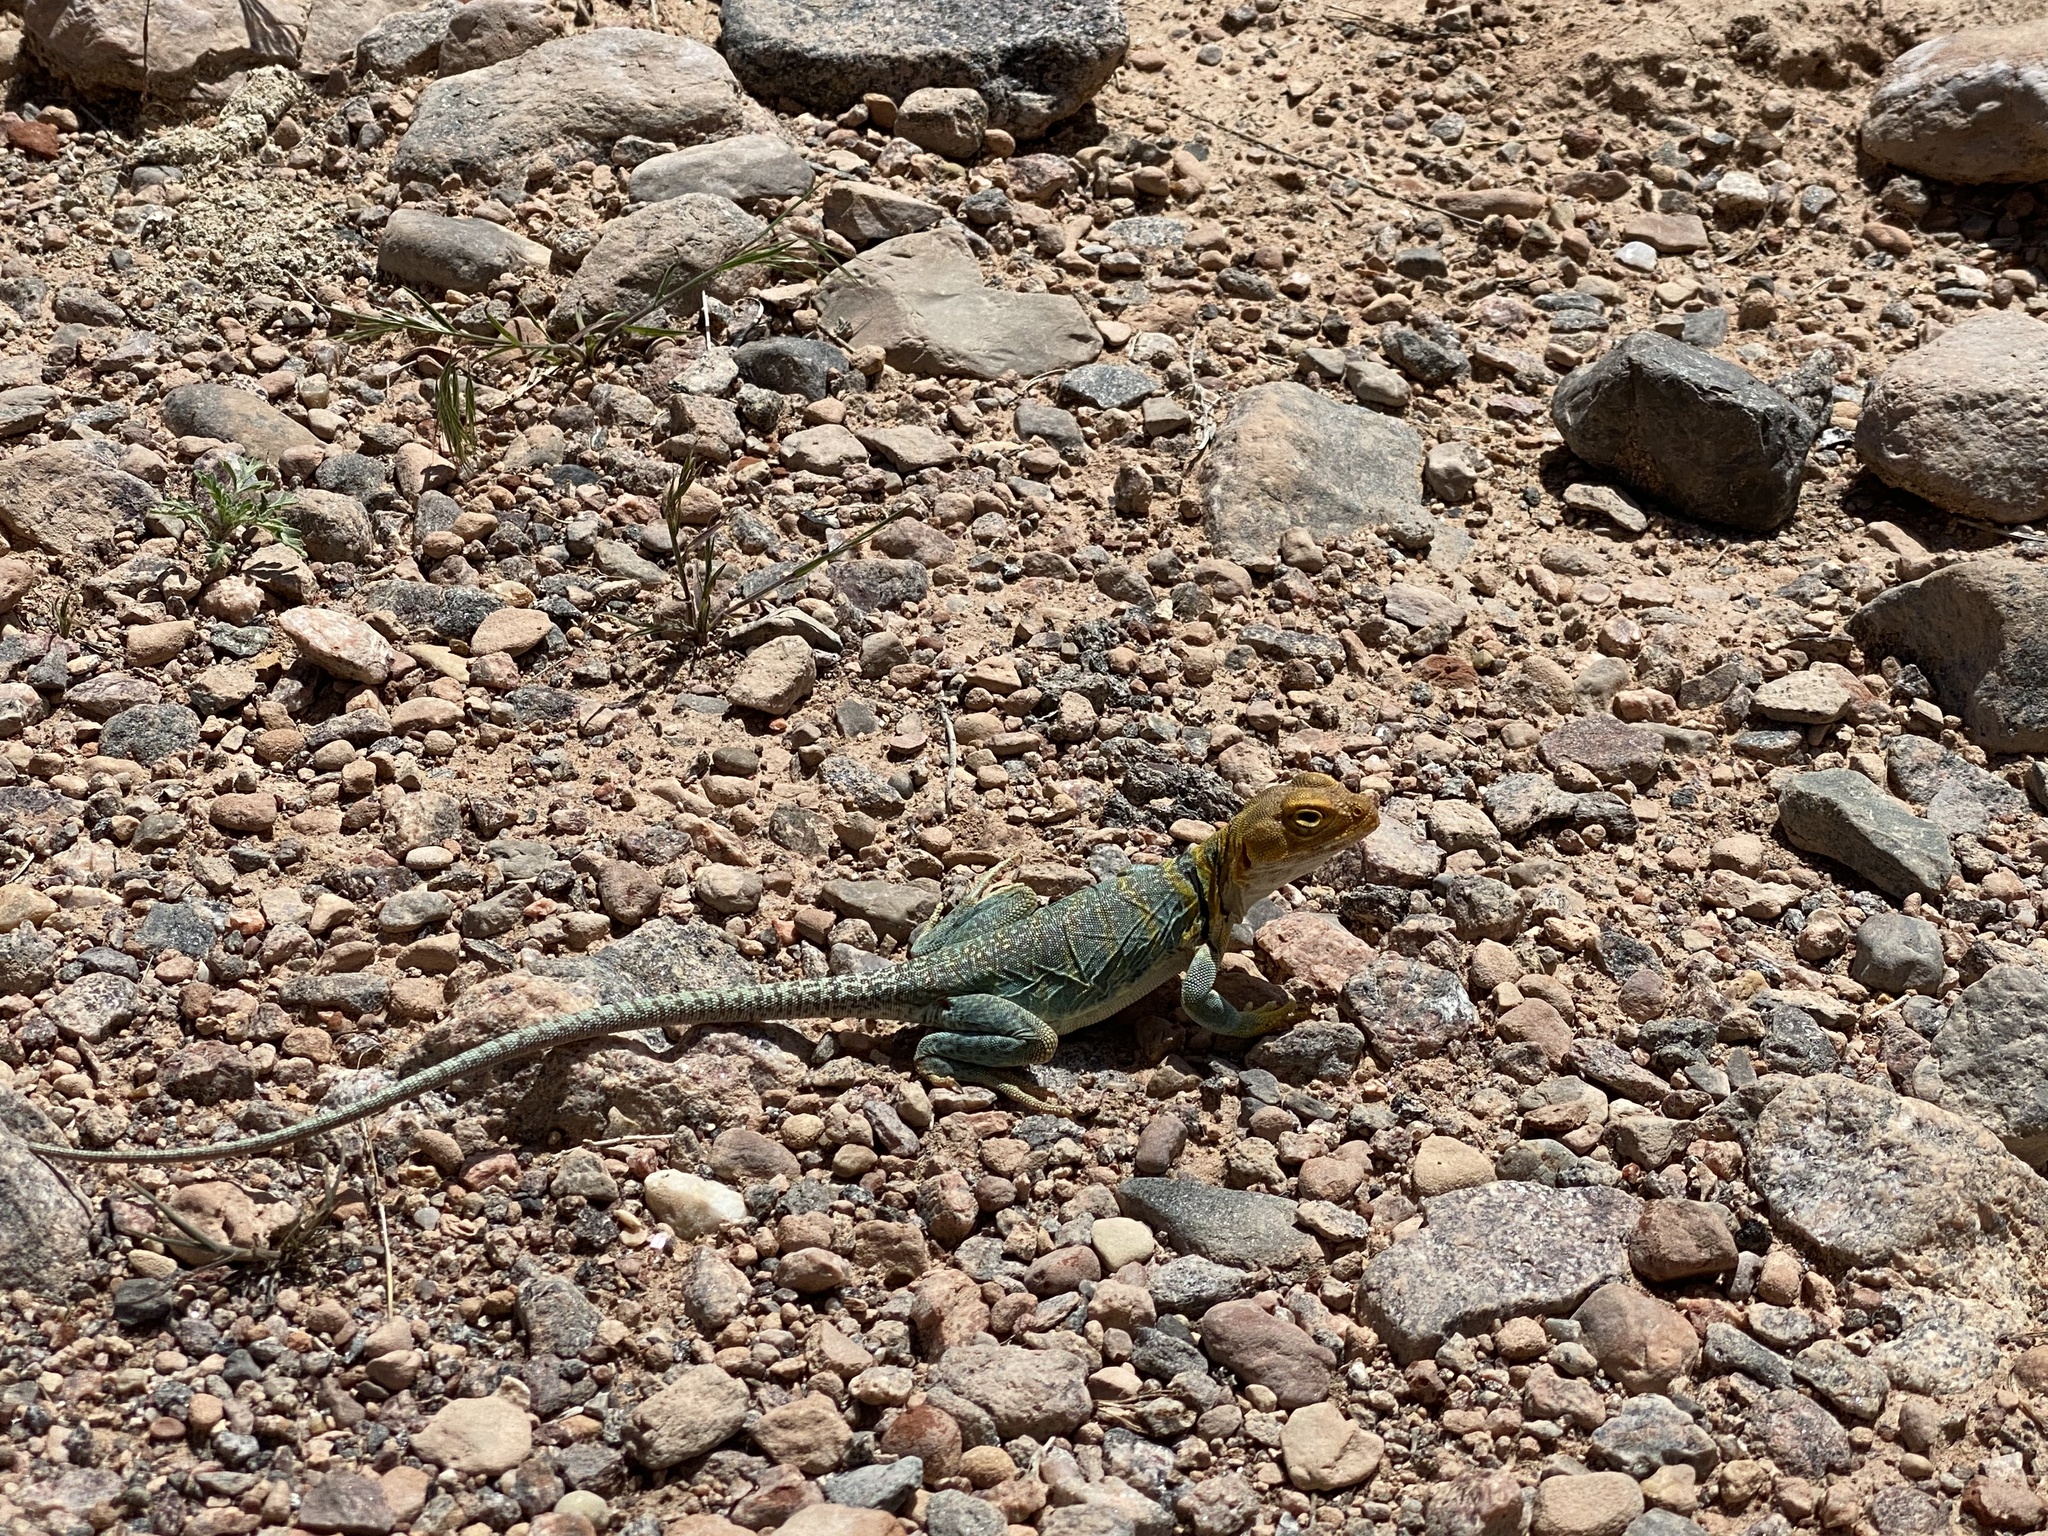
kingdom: Animalia
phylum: Chordata
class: Squamata
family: Crotaphytidae
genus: Crotaphytus
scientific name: Crotaphytus collaris
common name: Collared lizard
